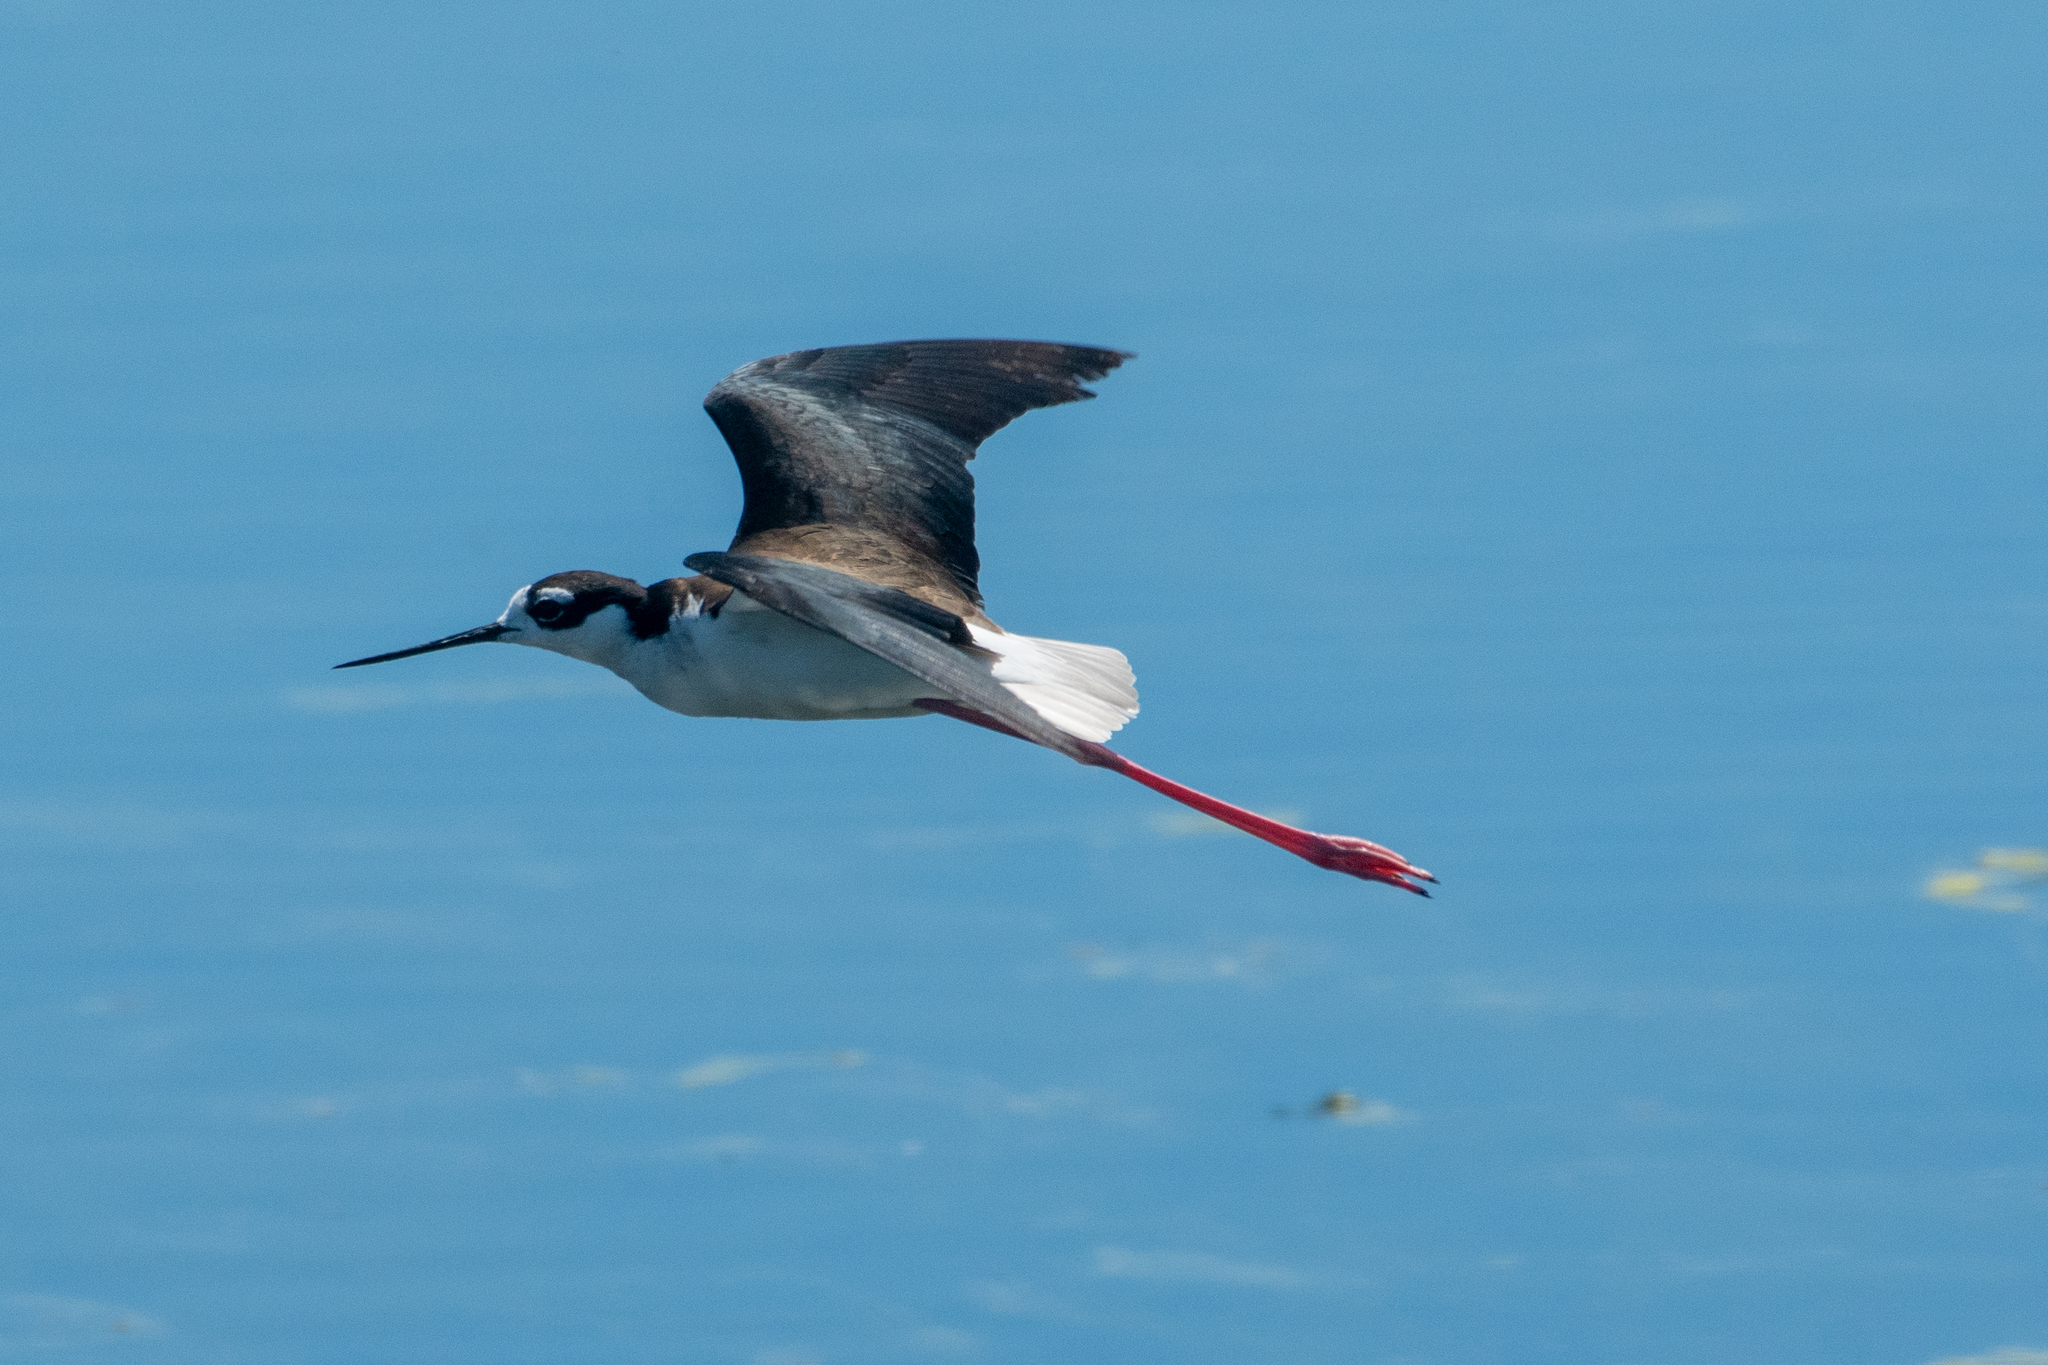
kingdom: Animalia
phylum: Chordata
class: Aves
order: Charadriiformes
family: Recurvirostridae
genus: Himantopus
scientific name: Himantopus mexicanus
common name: Black-necked stilt
